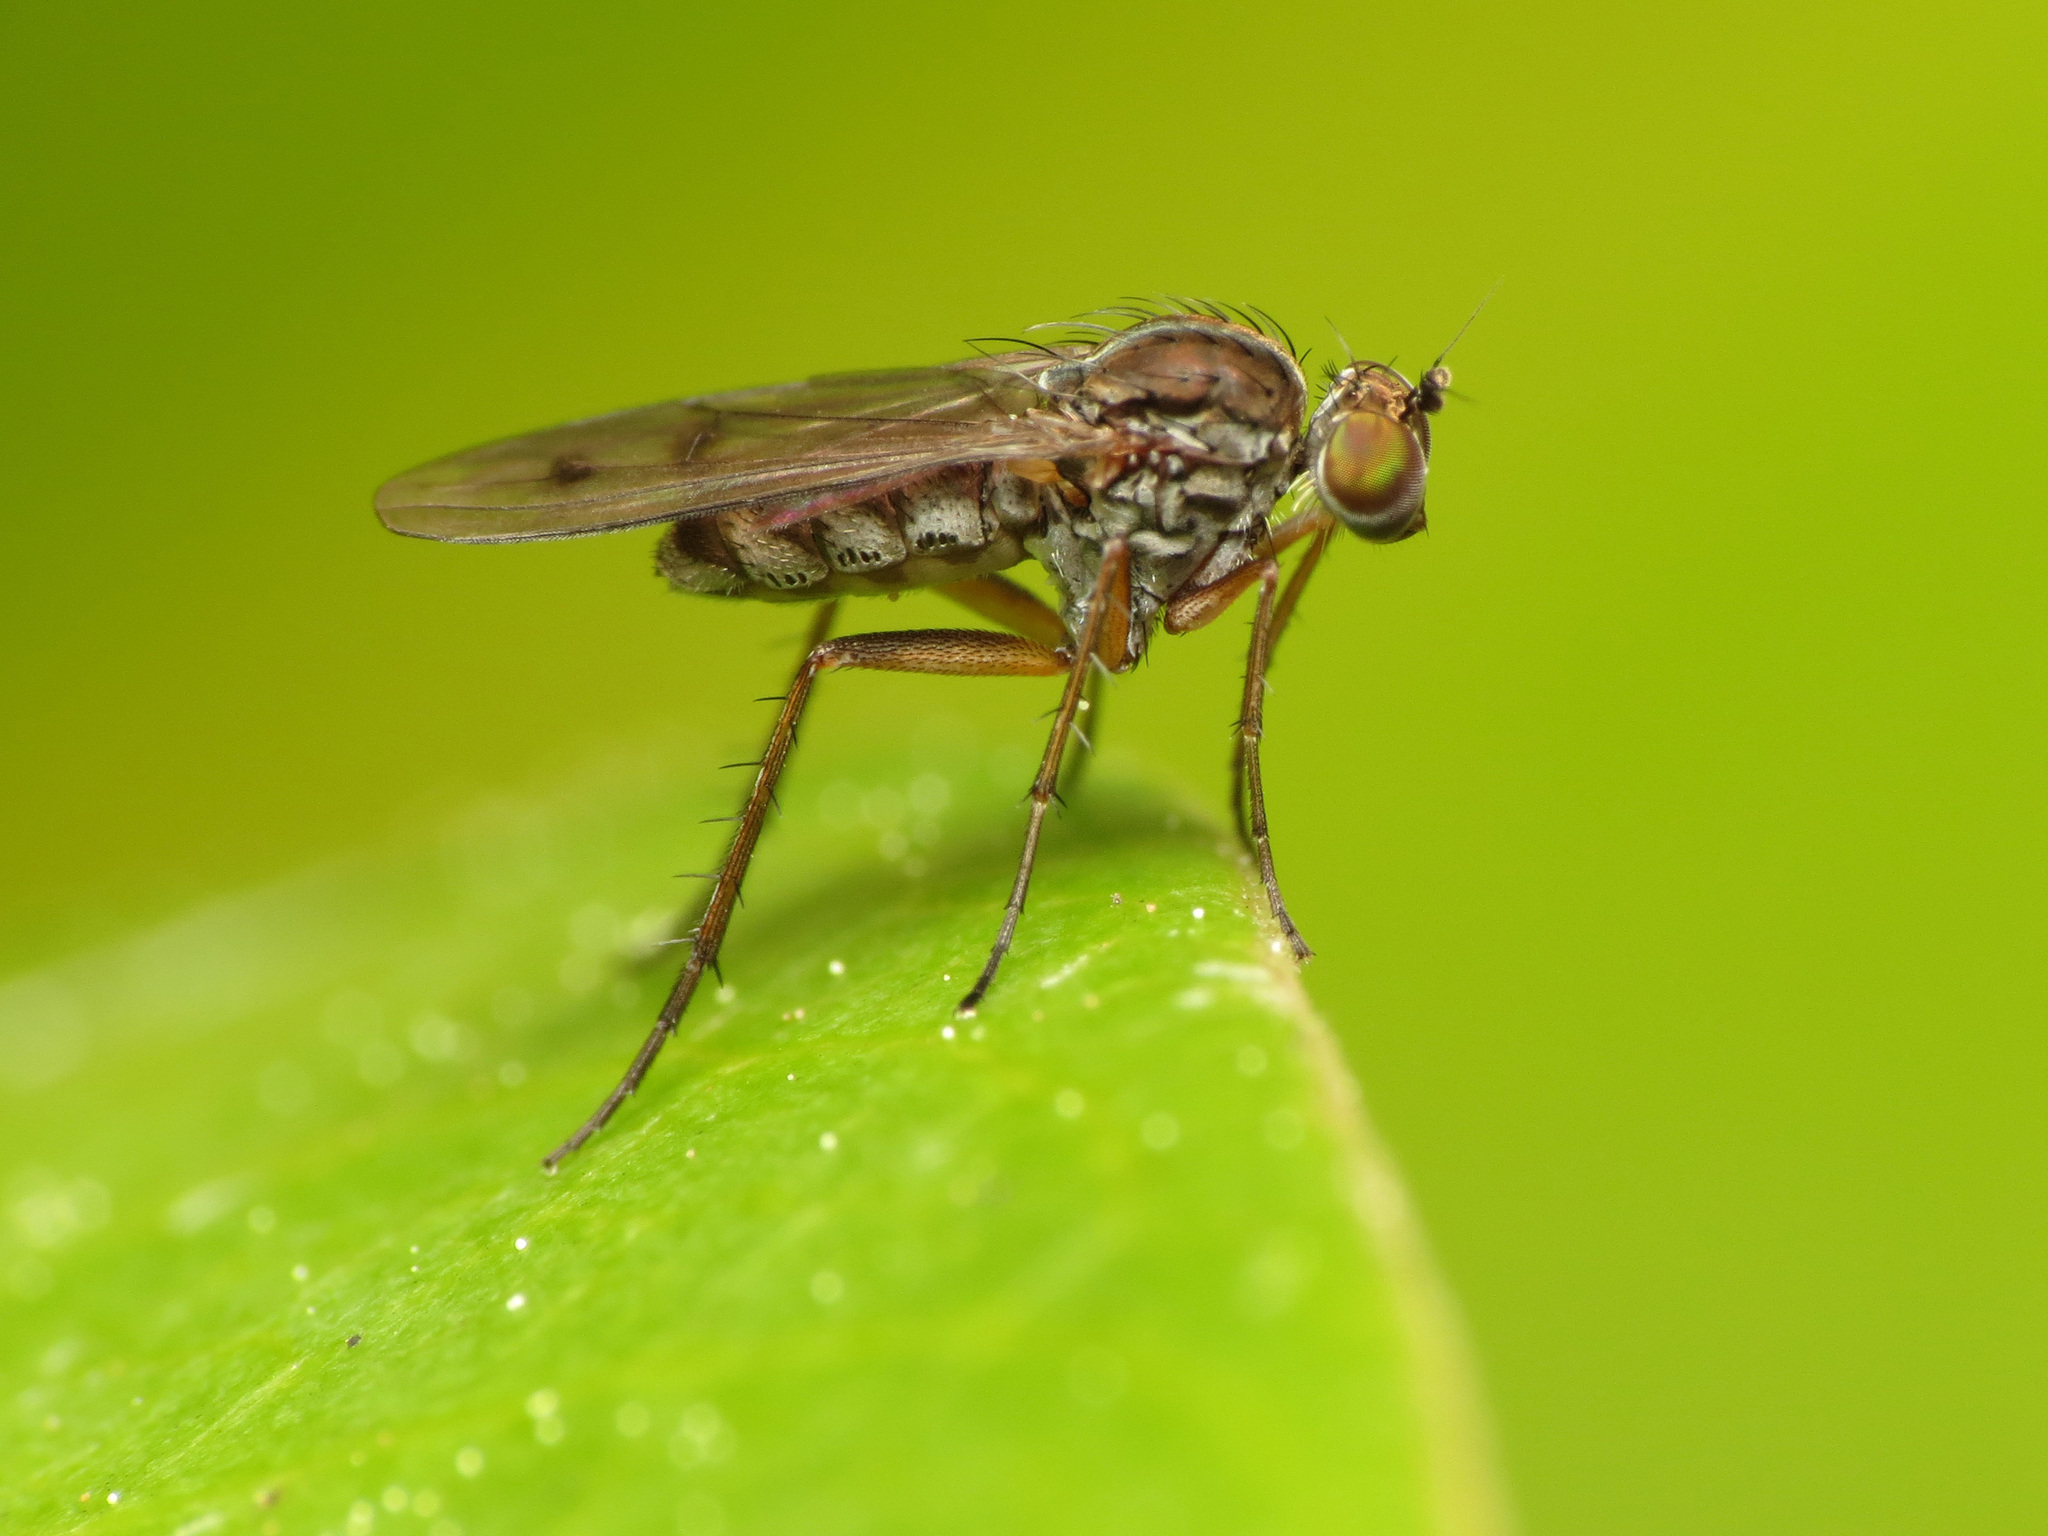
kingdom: Animalia
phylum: Arthropoda
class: Insecta
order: Diptera
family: Dolichopodidae
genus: Tetrachaetus
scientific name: Tetrachaetus bipunctatus
